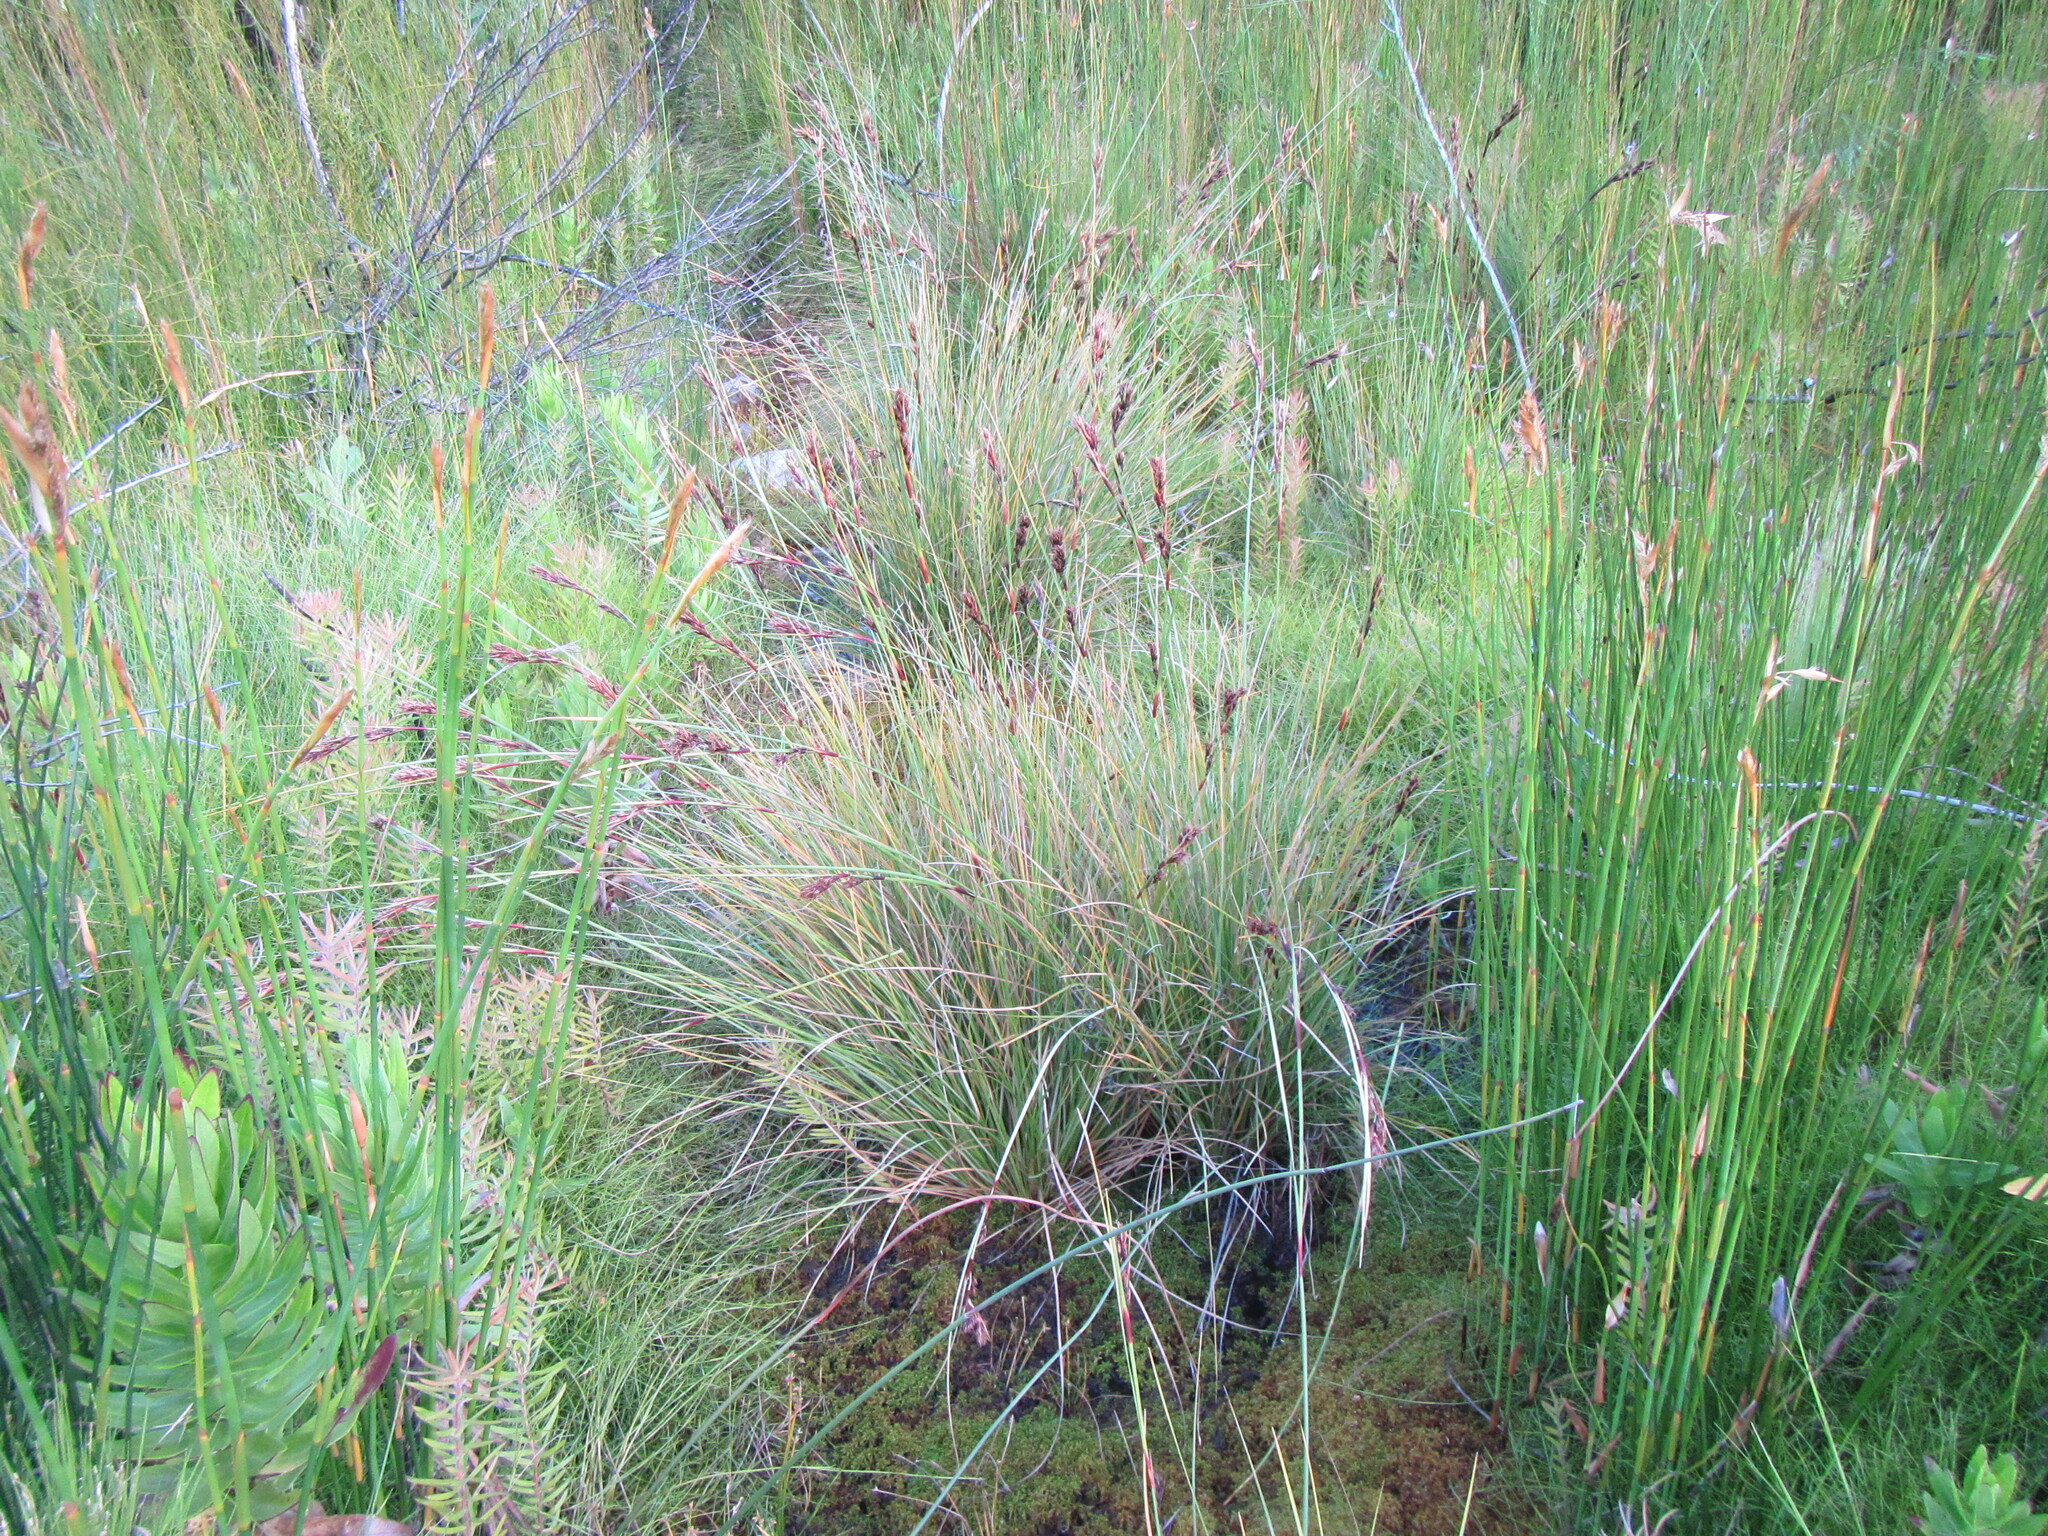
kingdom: Plantae
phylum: Tracheophyta
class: Liliopsida
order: Poales
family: Cyperaceae
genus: Cyathocoma
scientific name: Cyathocoma hexandra
